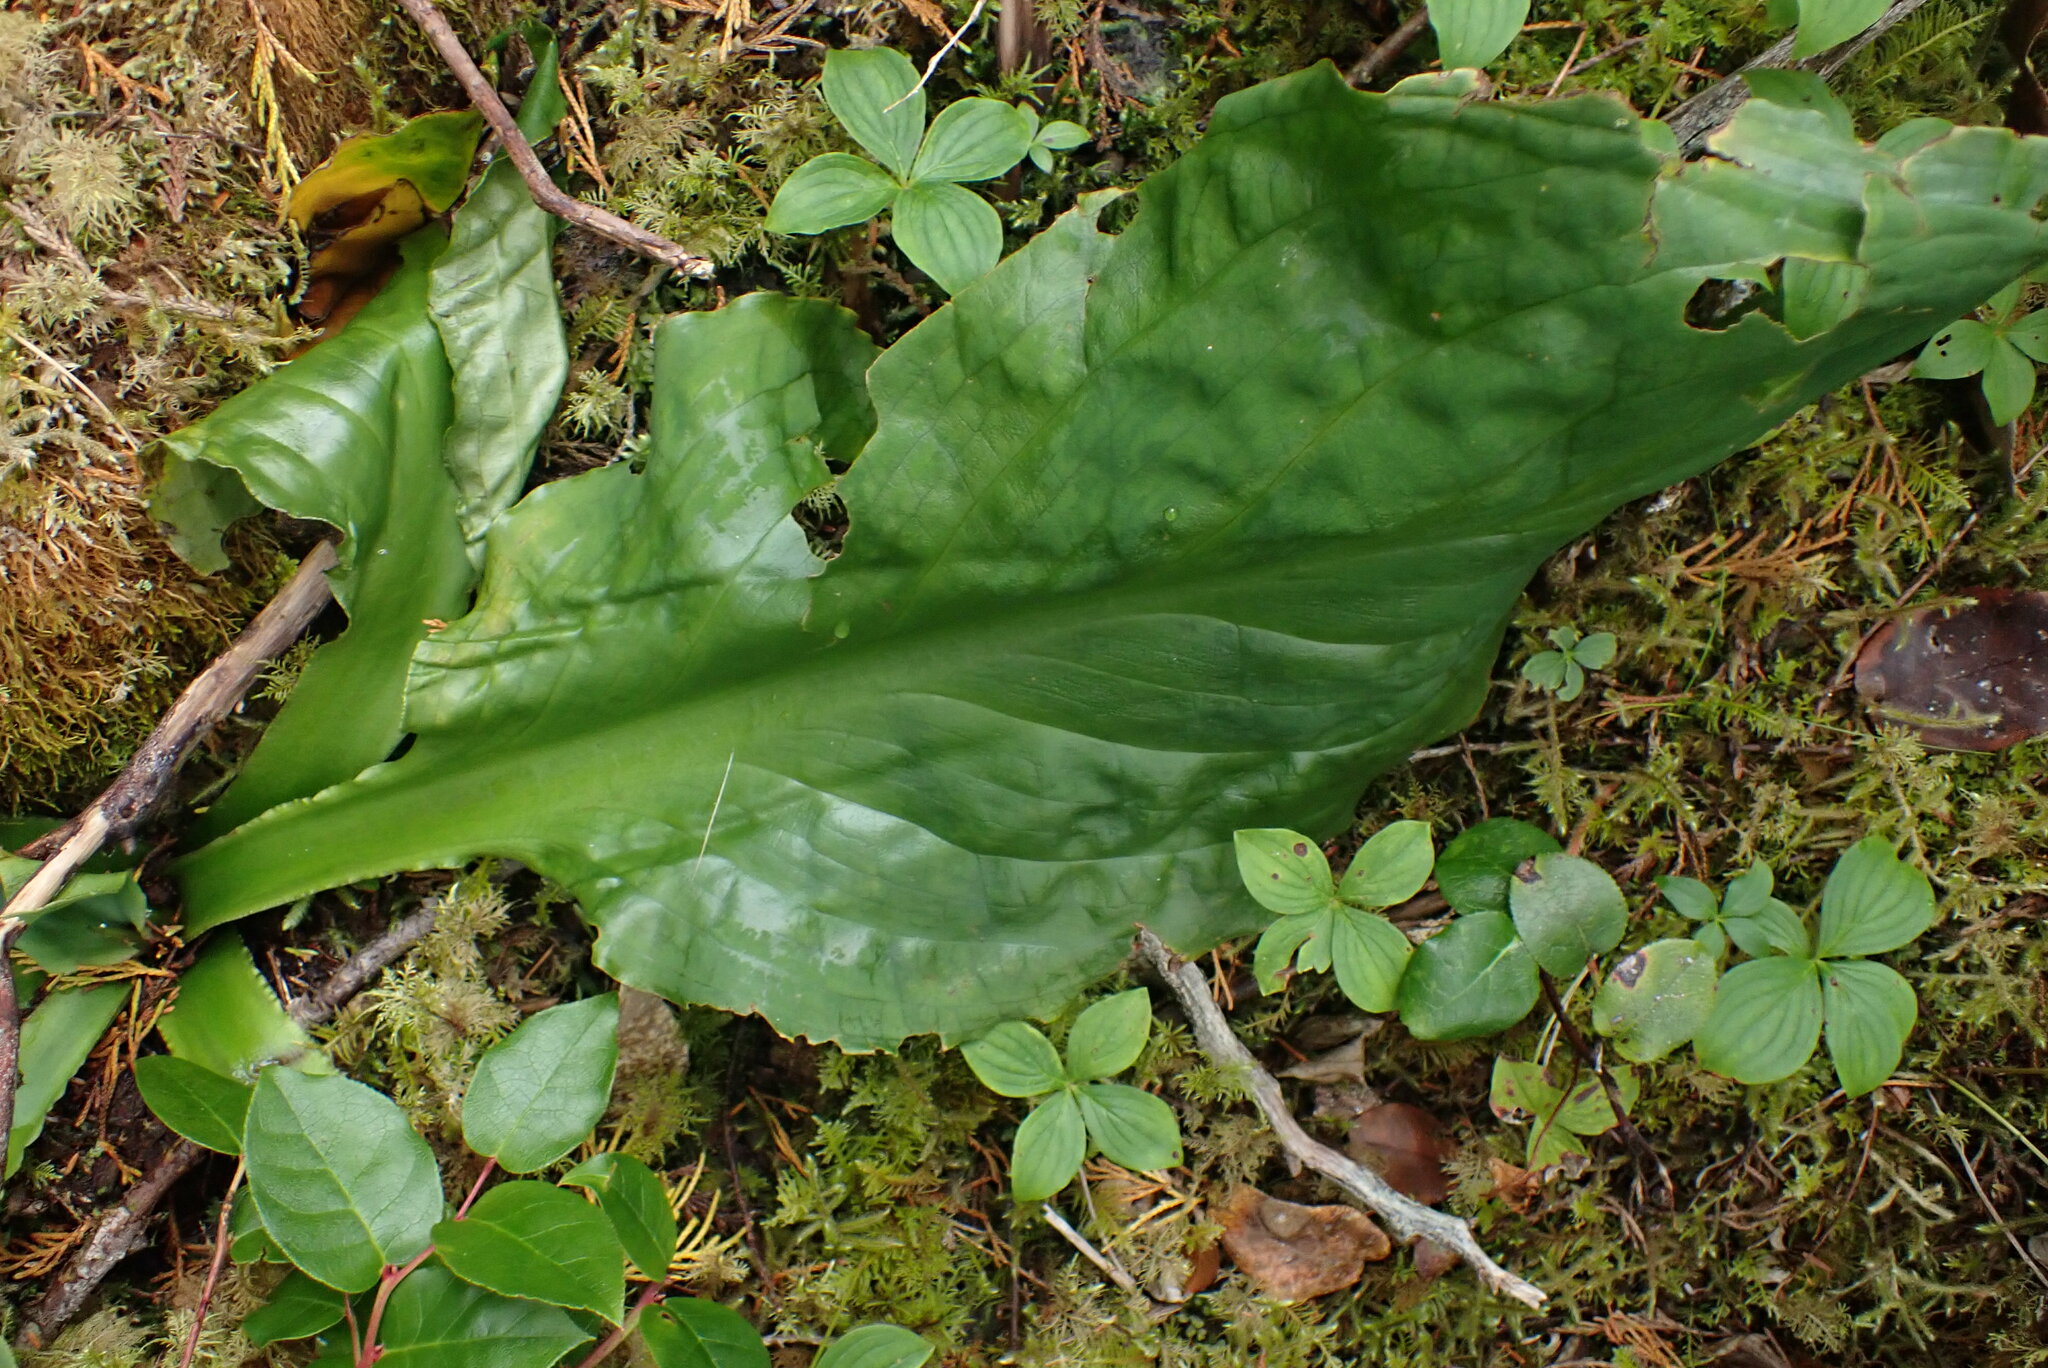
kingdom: Plantae
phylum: Tracheophyta
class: Liliopsida
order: Alismatales
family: Araceae
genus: Lysichiton
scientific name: Lysichiton americanus
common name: American skunk cabbage
